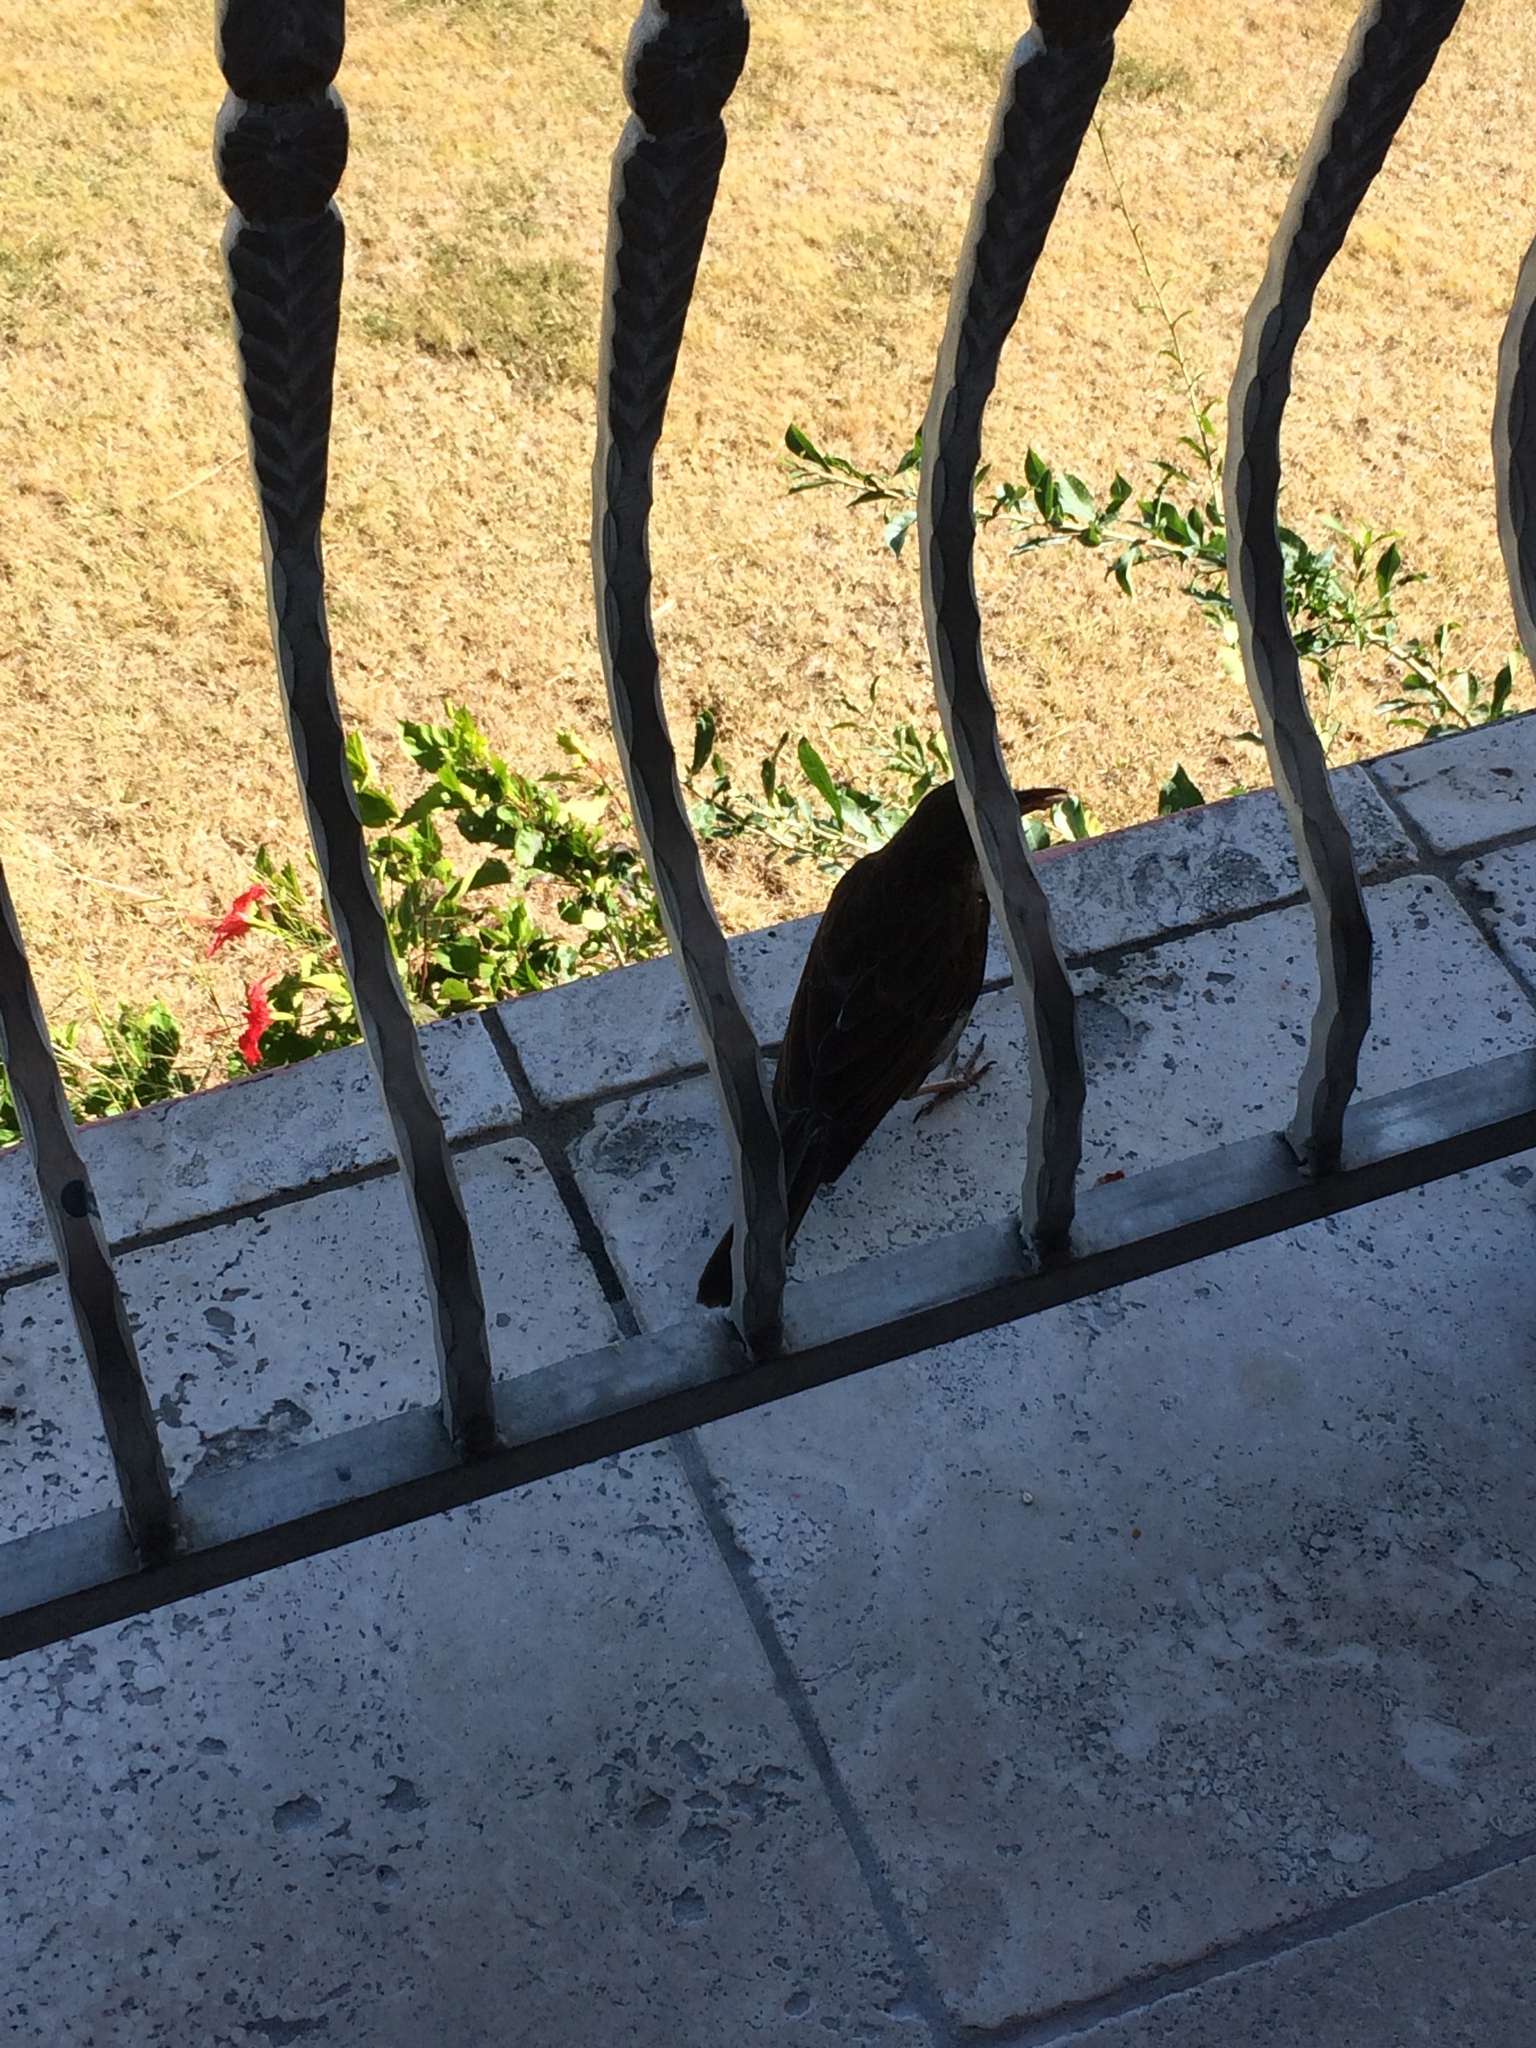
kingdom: Animalia
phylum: Chordata
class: Aves
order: Passeriformes
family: Mimidae
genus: Margarops
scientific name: Margarops fuscatus
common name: Pearly-eyed thrasher
